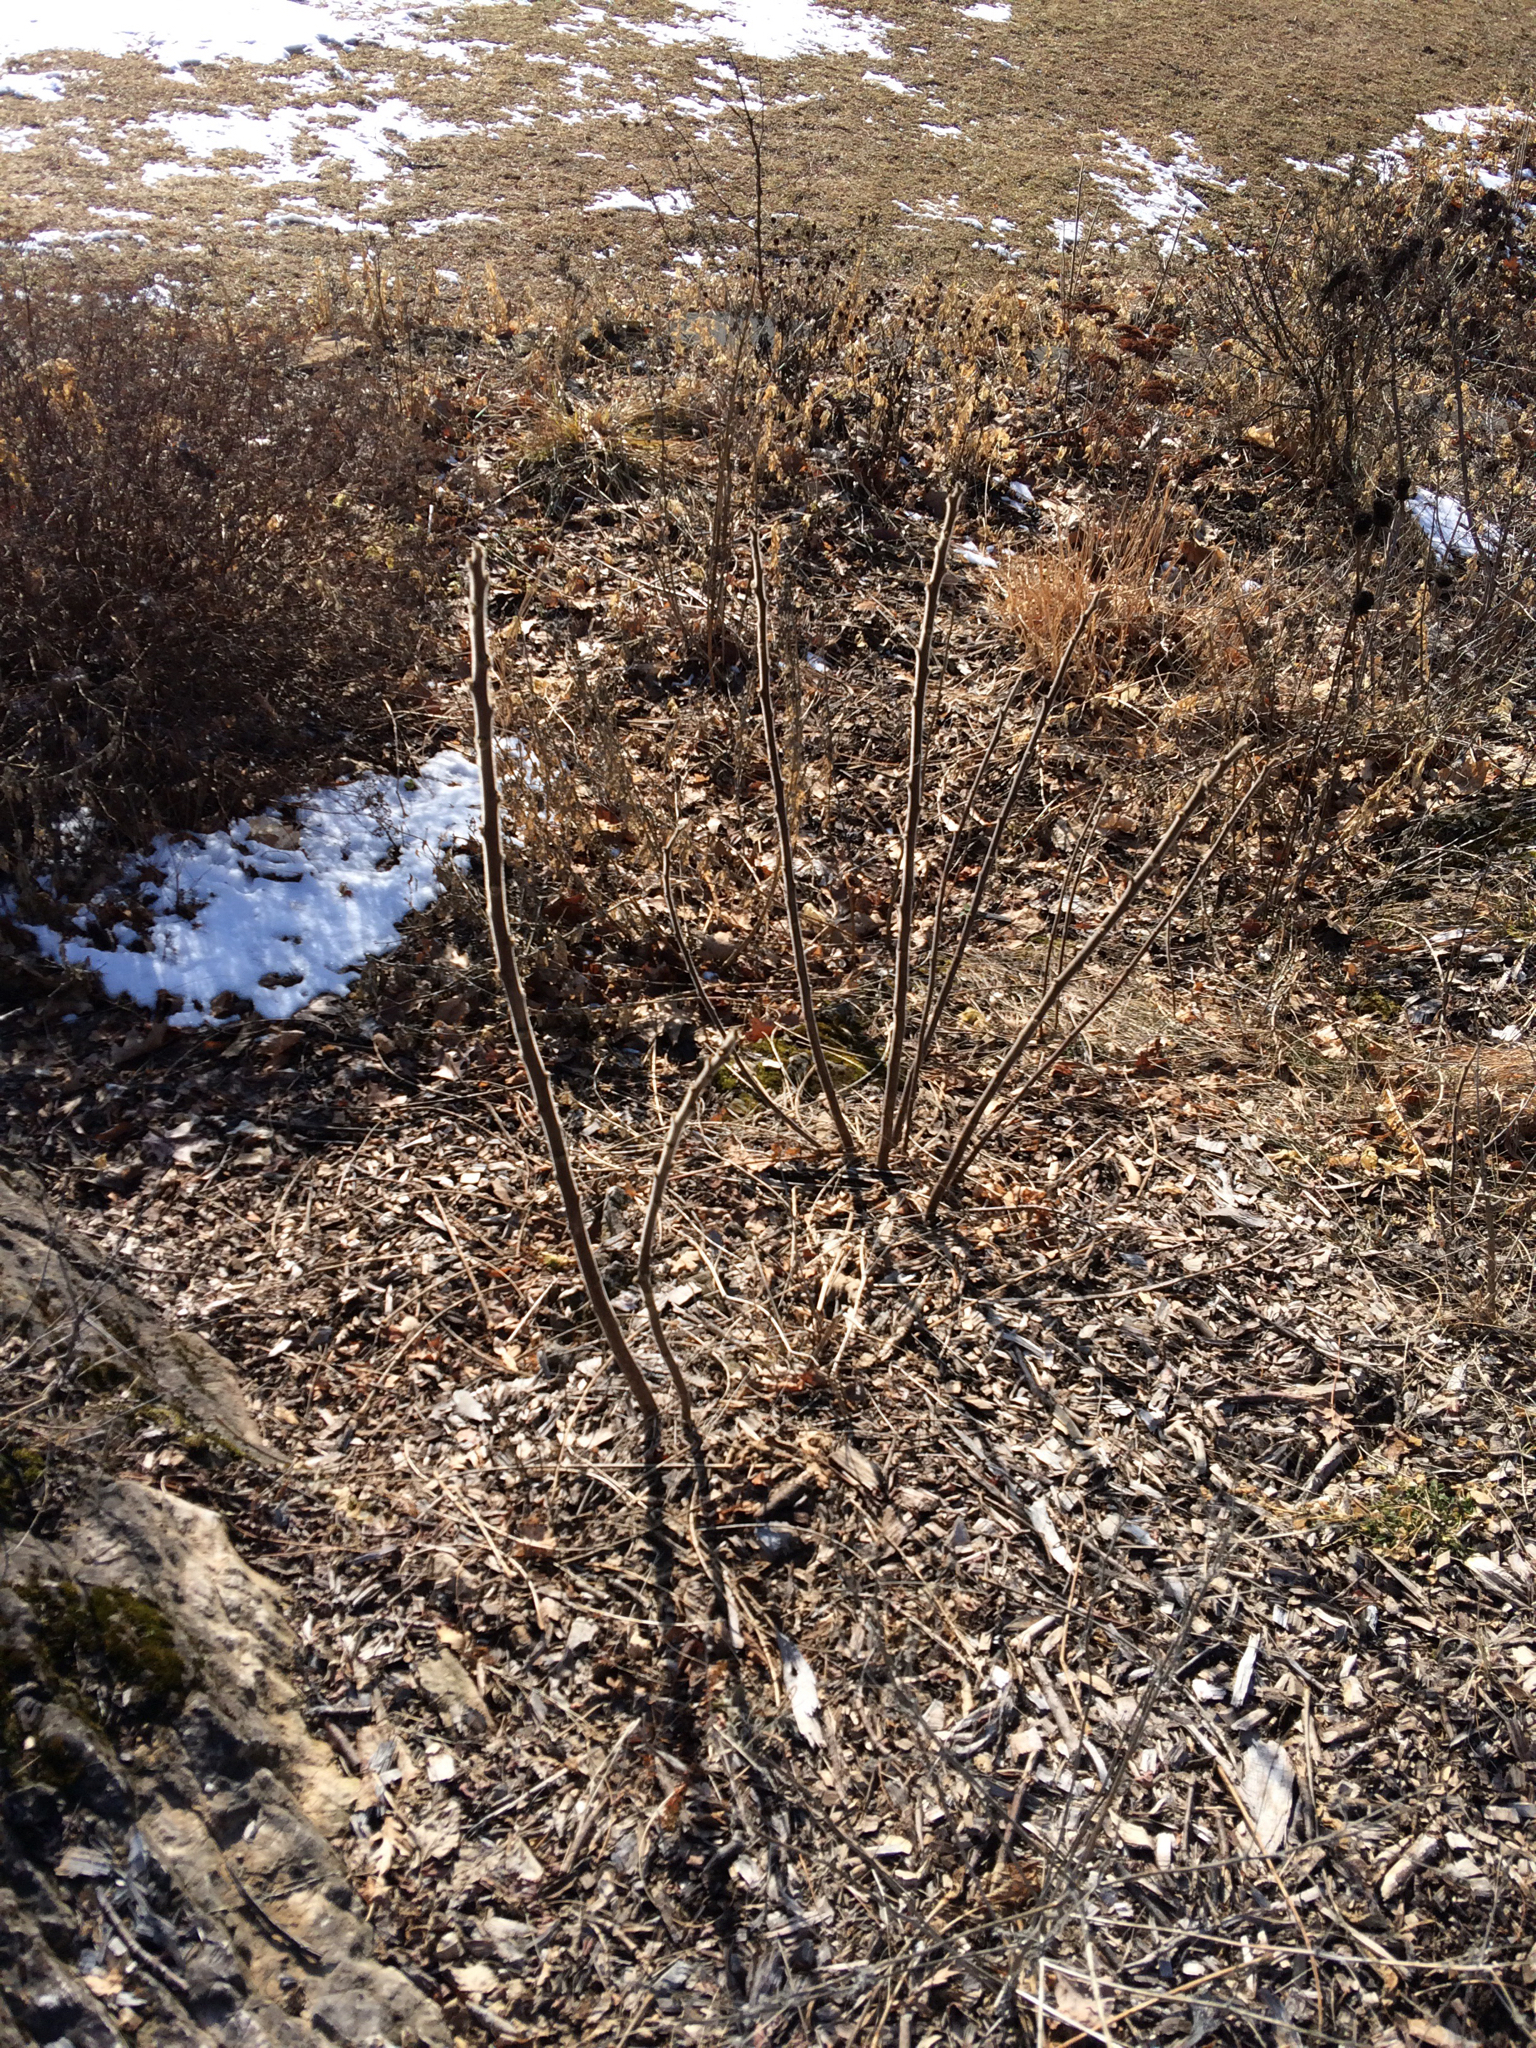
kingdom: Plantae
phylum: Tracheophyta
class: Magnoliopsida
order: Sapindales
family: Anacardiaceae
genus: Rhus
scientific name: Rhus typhina
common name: Staghorn sumac
